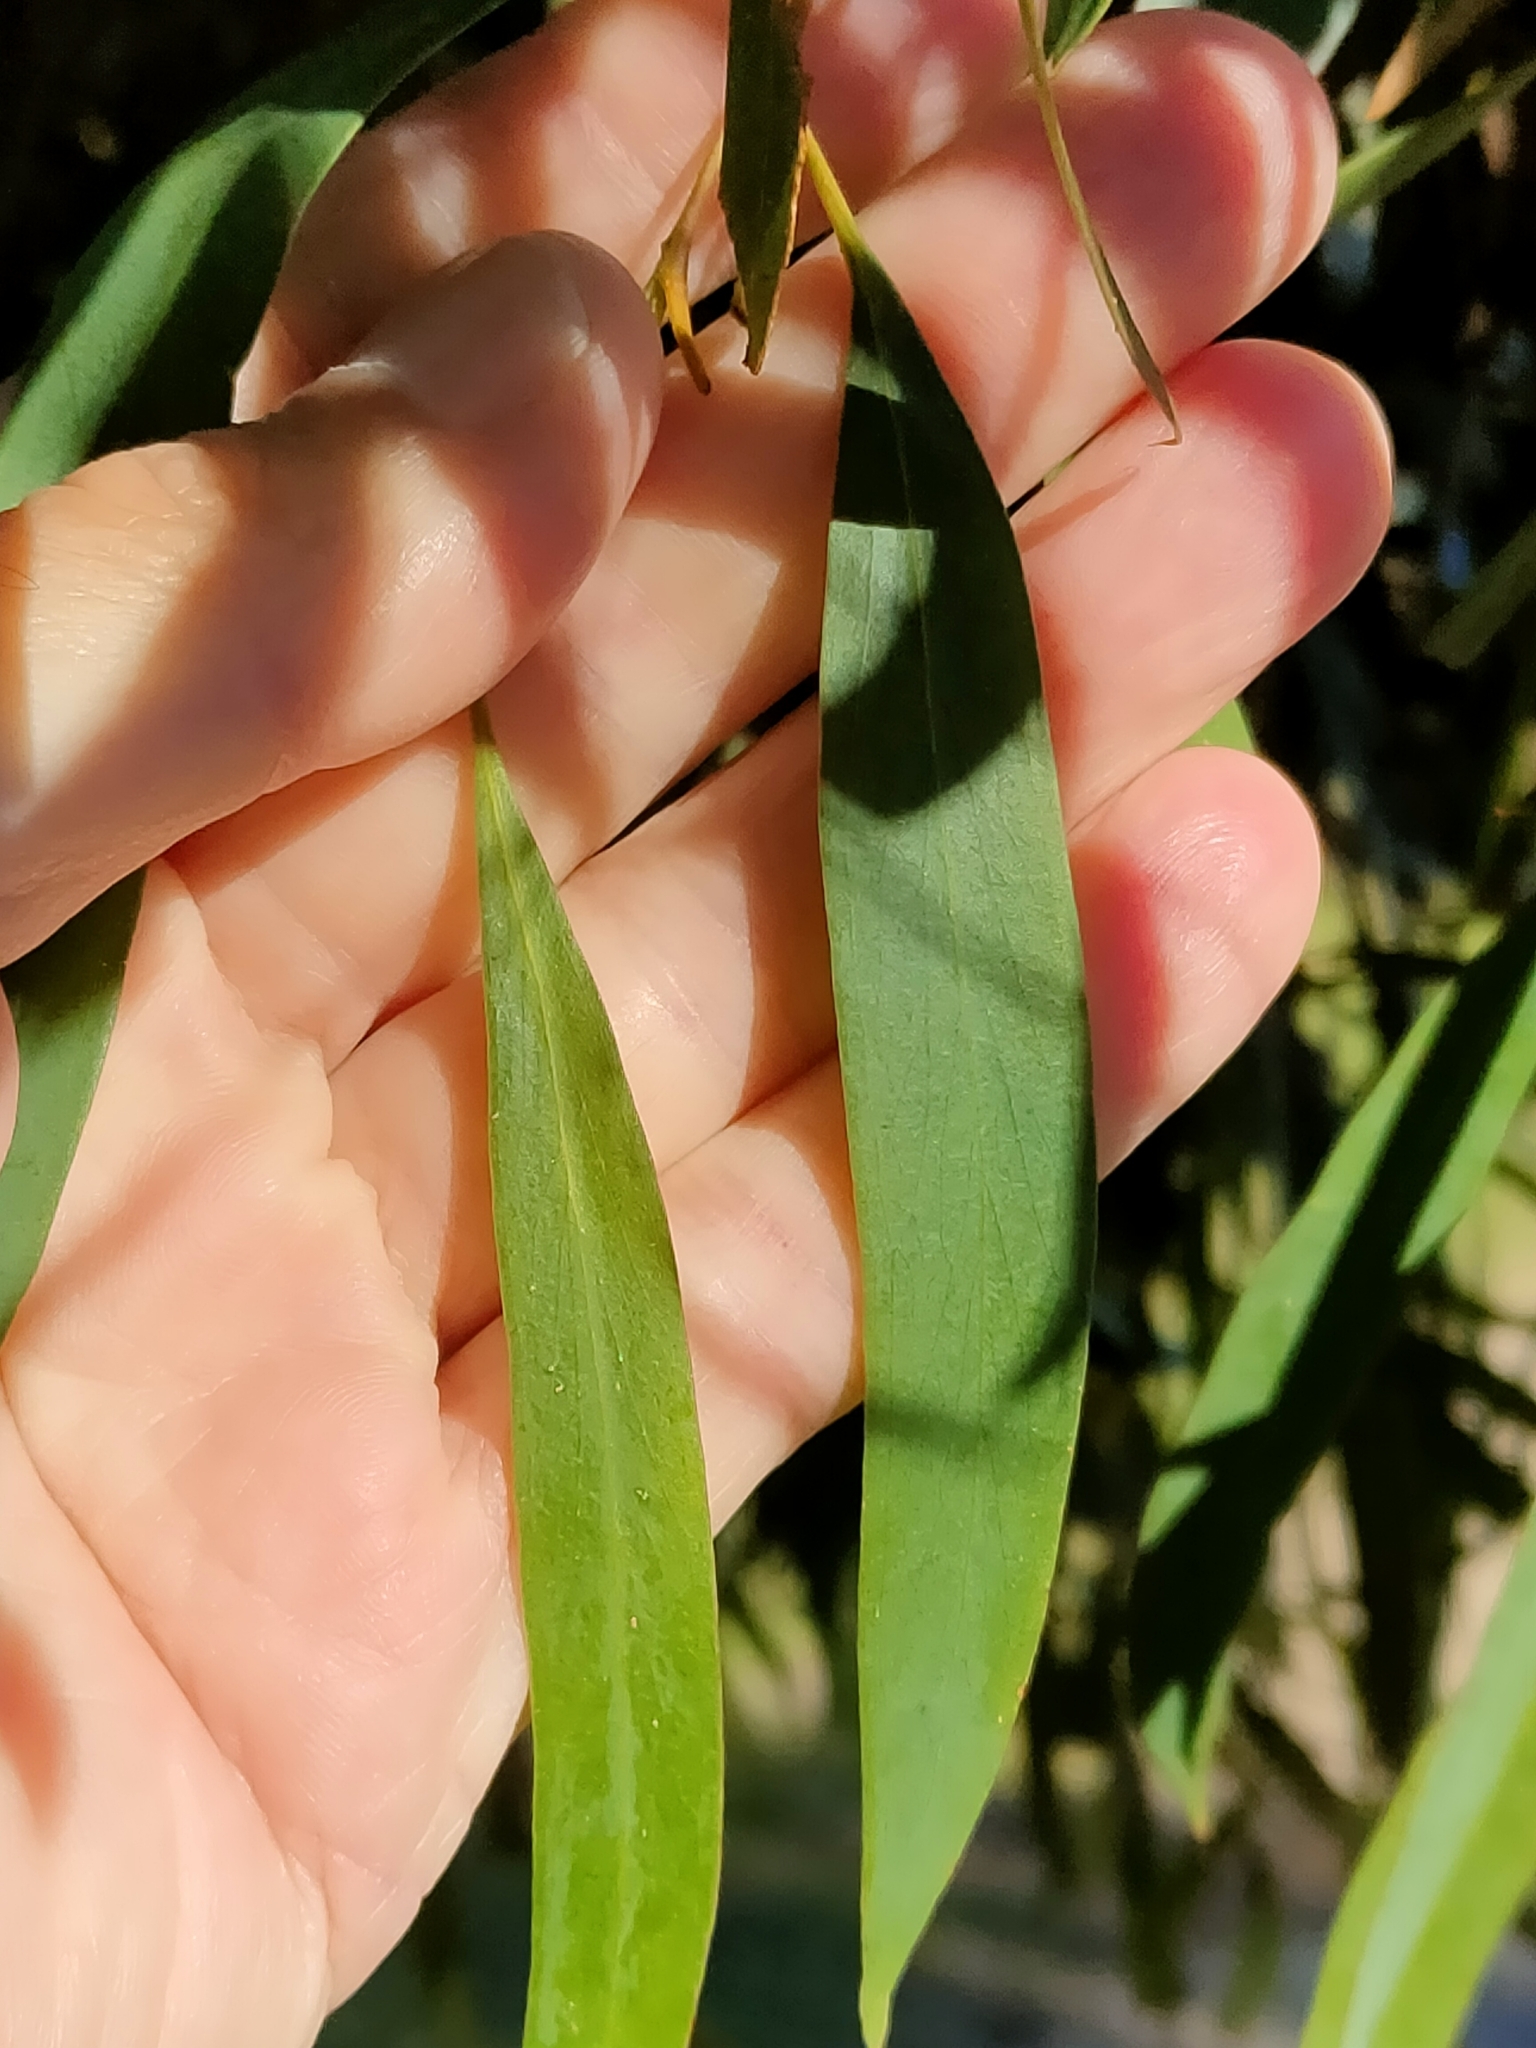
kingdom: Plantae
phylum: Tracheophyta
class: Magnoliopsida
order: Myrtales
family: Myrtaceae
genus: Eucalyptus
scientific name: Eucalyptus amygdalina
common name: Black peppermint
